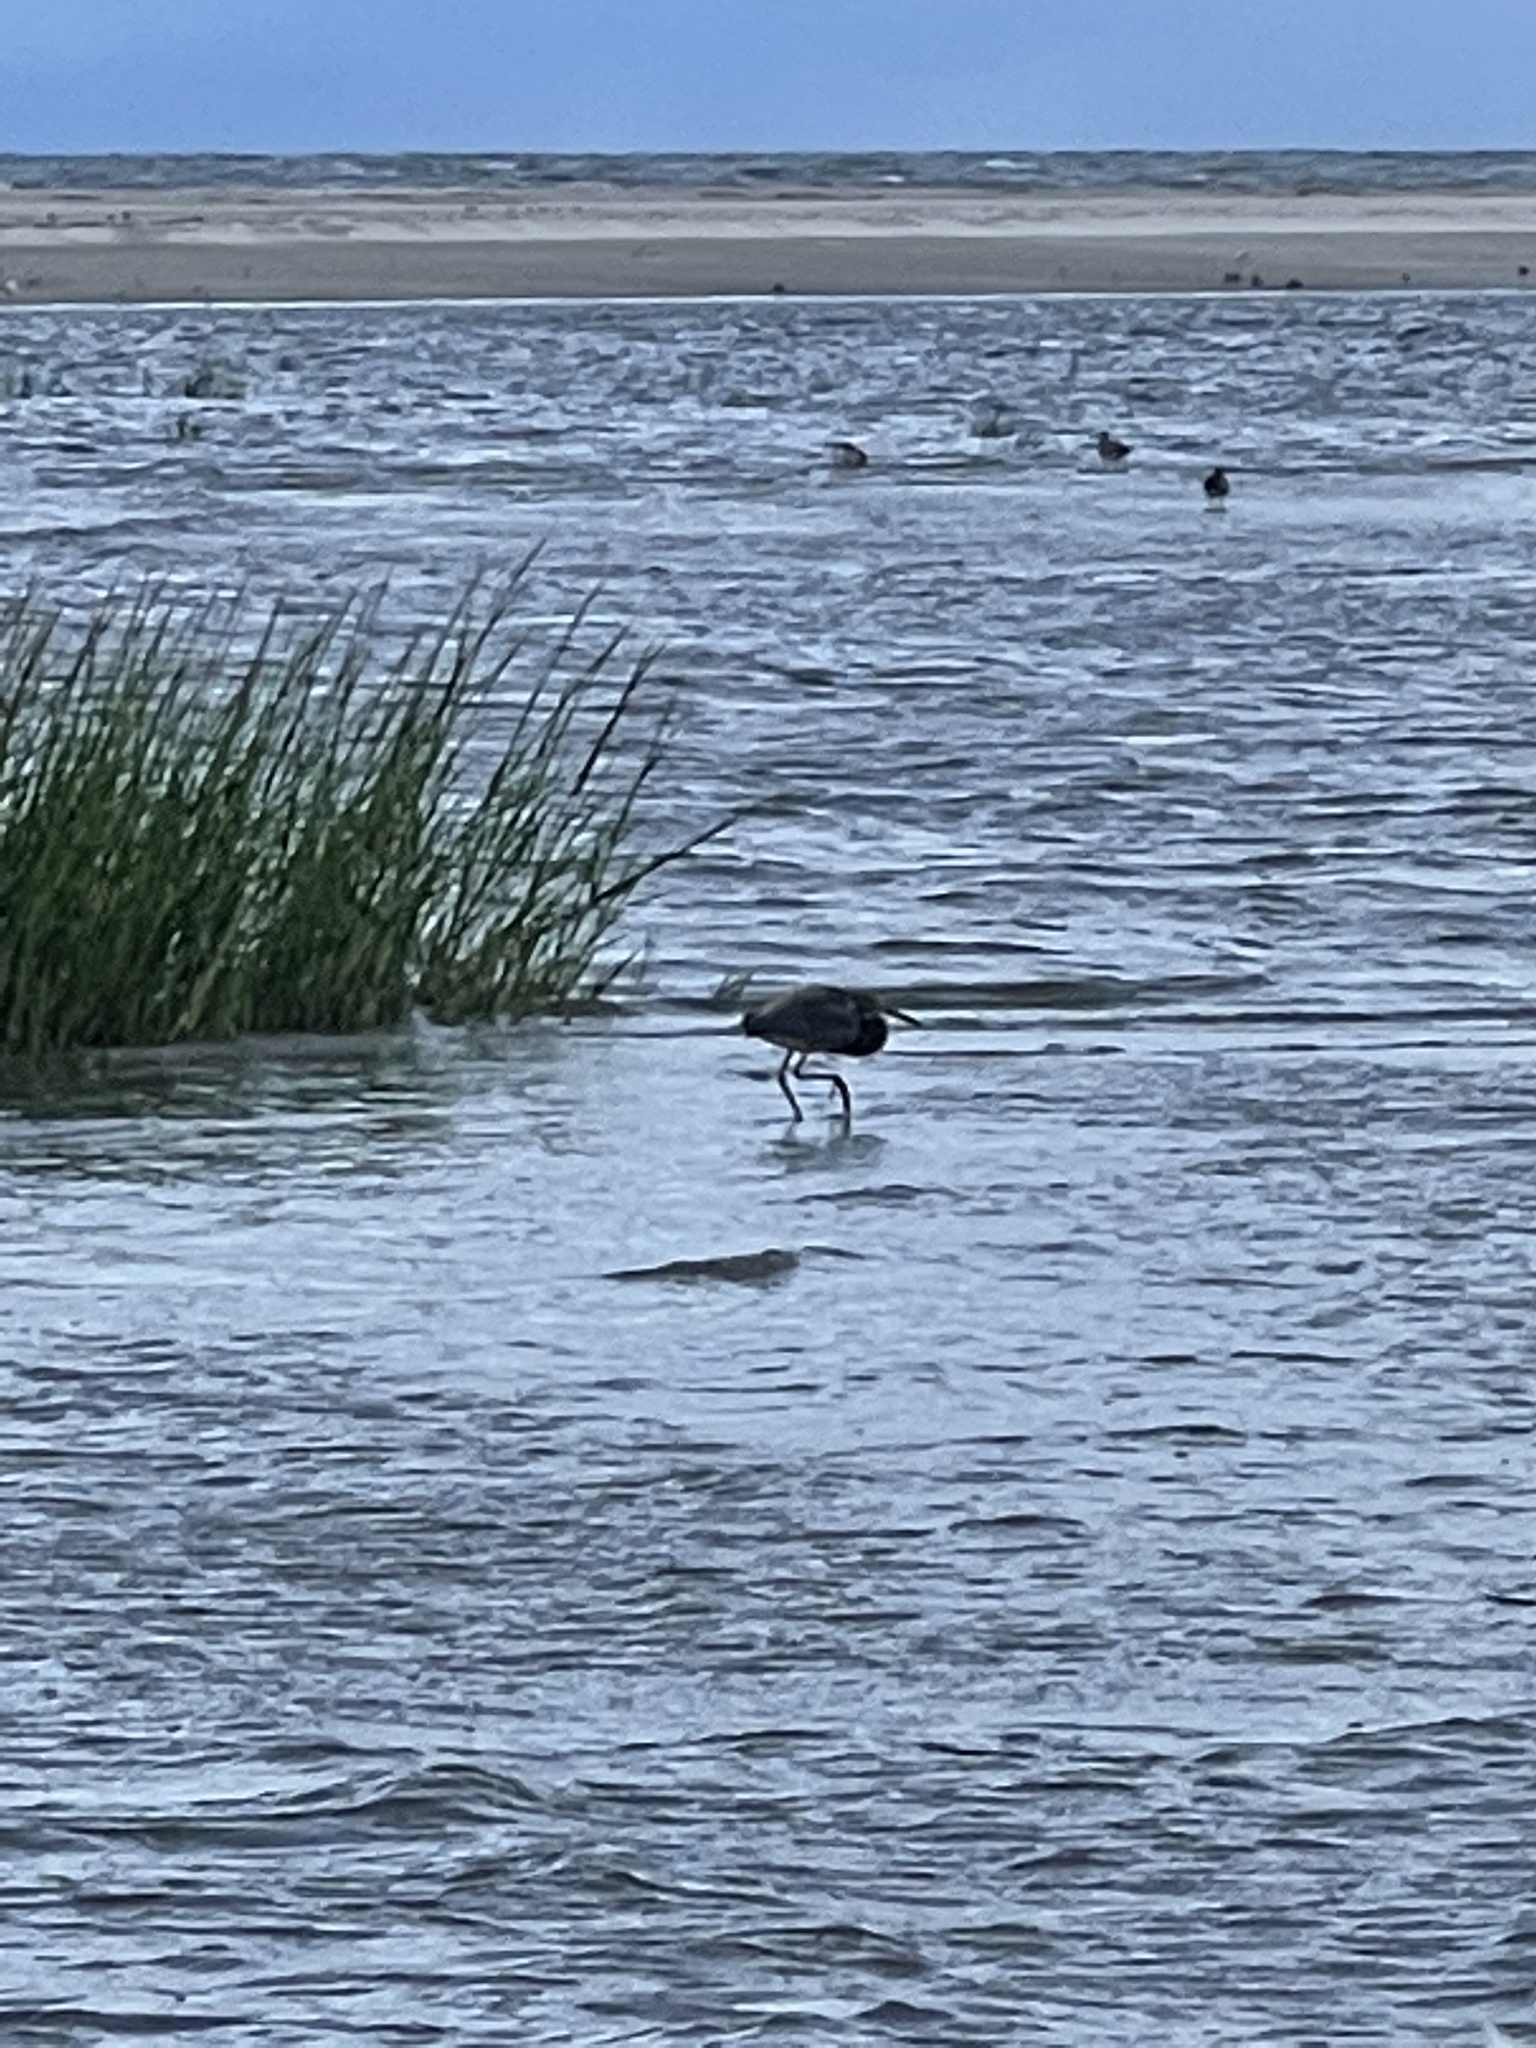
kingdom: Animalia
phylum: Chordata
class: Aves
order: Pelecaniformes
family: Ardeidae
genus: Egretta
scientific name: Egretta tricolor
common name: Tricolored heron
